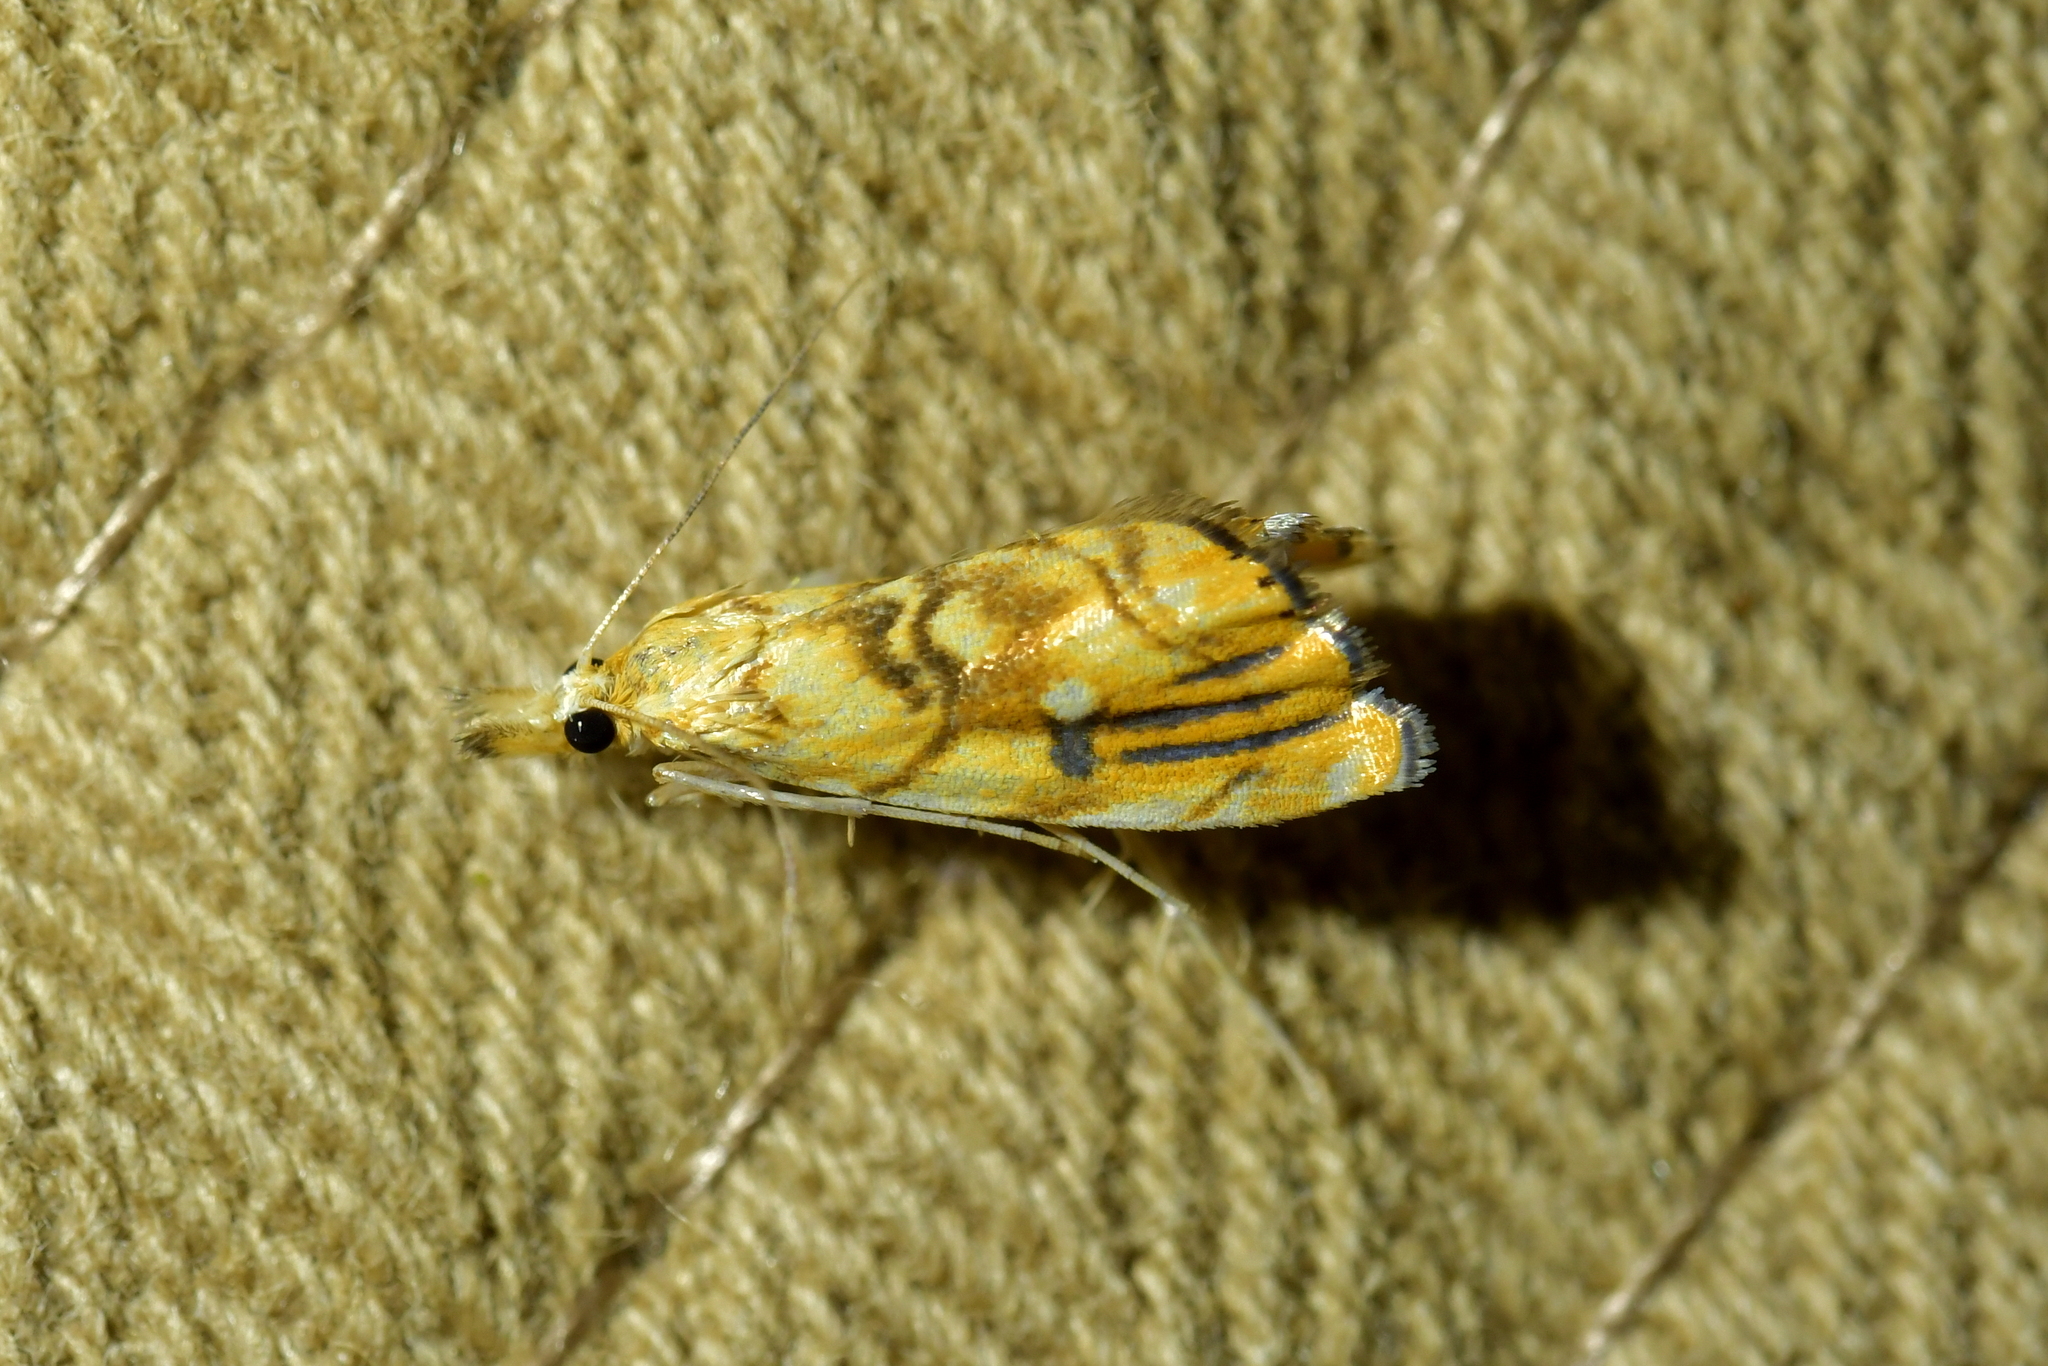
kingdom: Animalia
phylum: Arthropoda
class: Insecta
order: Lepidoptera
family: Crambidae
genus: Glaucocharis
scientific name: Glaucocharis selenaea
